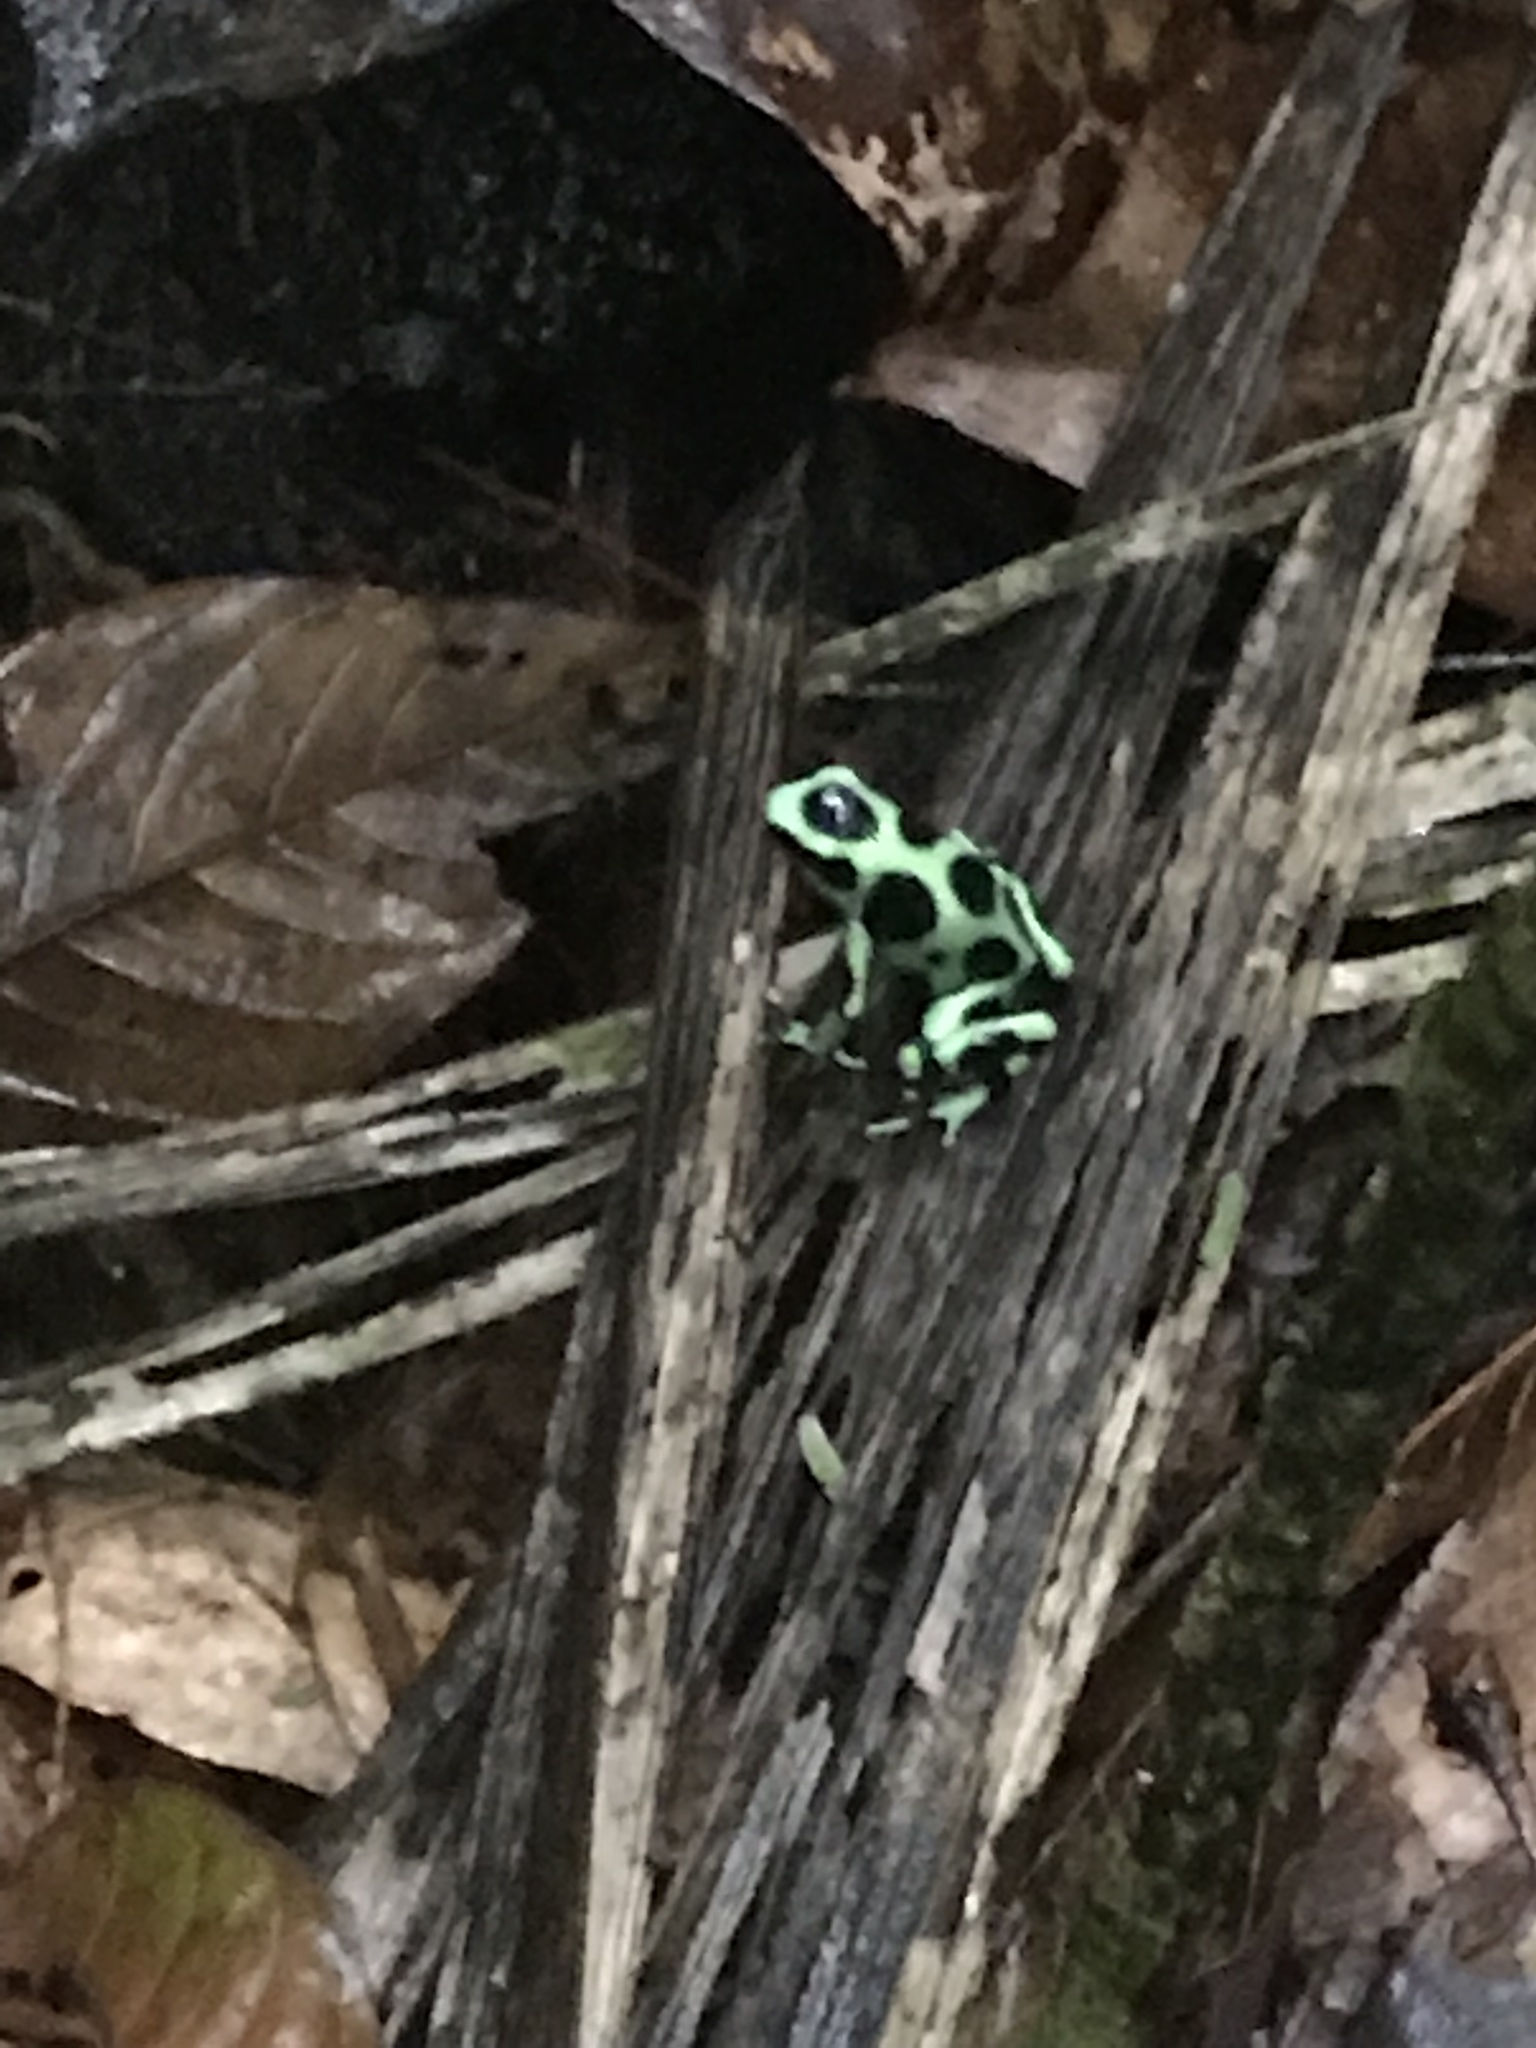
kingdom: Animalia
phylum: Chordata
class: Amphibia
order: Anura
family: Dendrobatidae
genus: Dendrobates
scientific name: Dendrobates auratus
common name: Green and black poison dart frog
